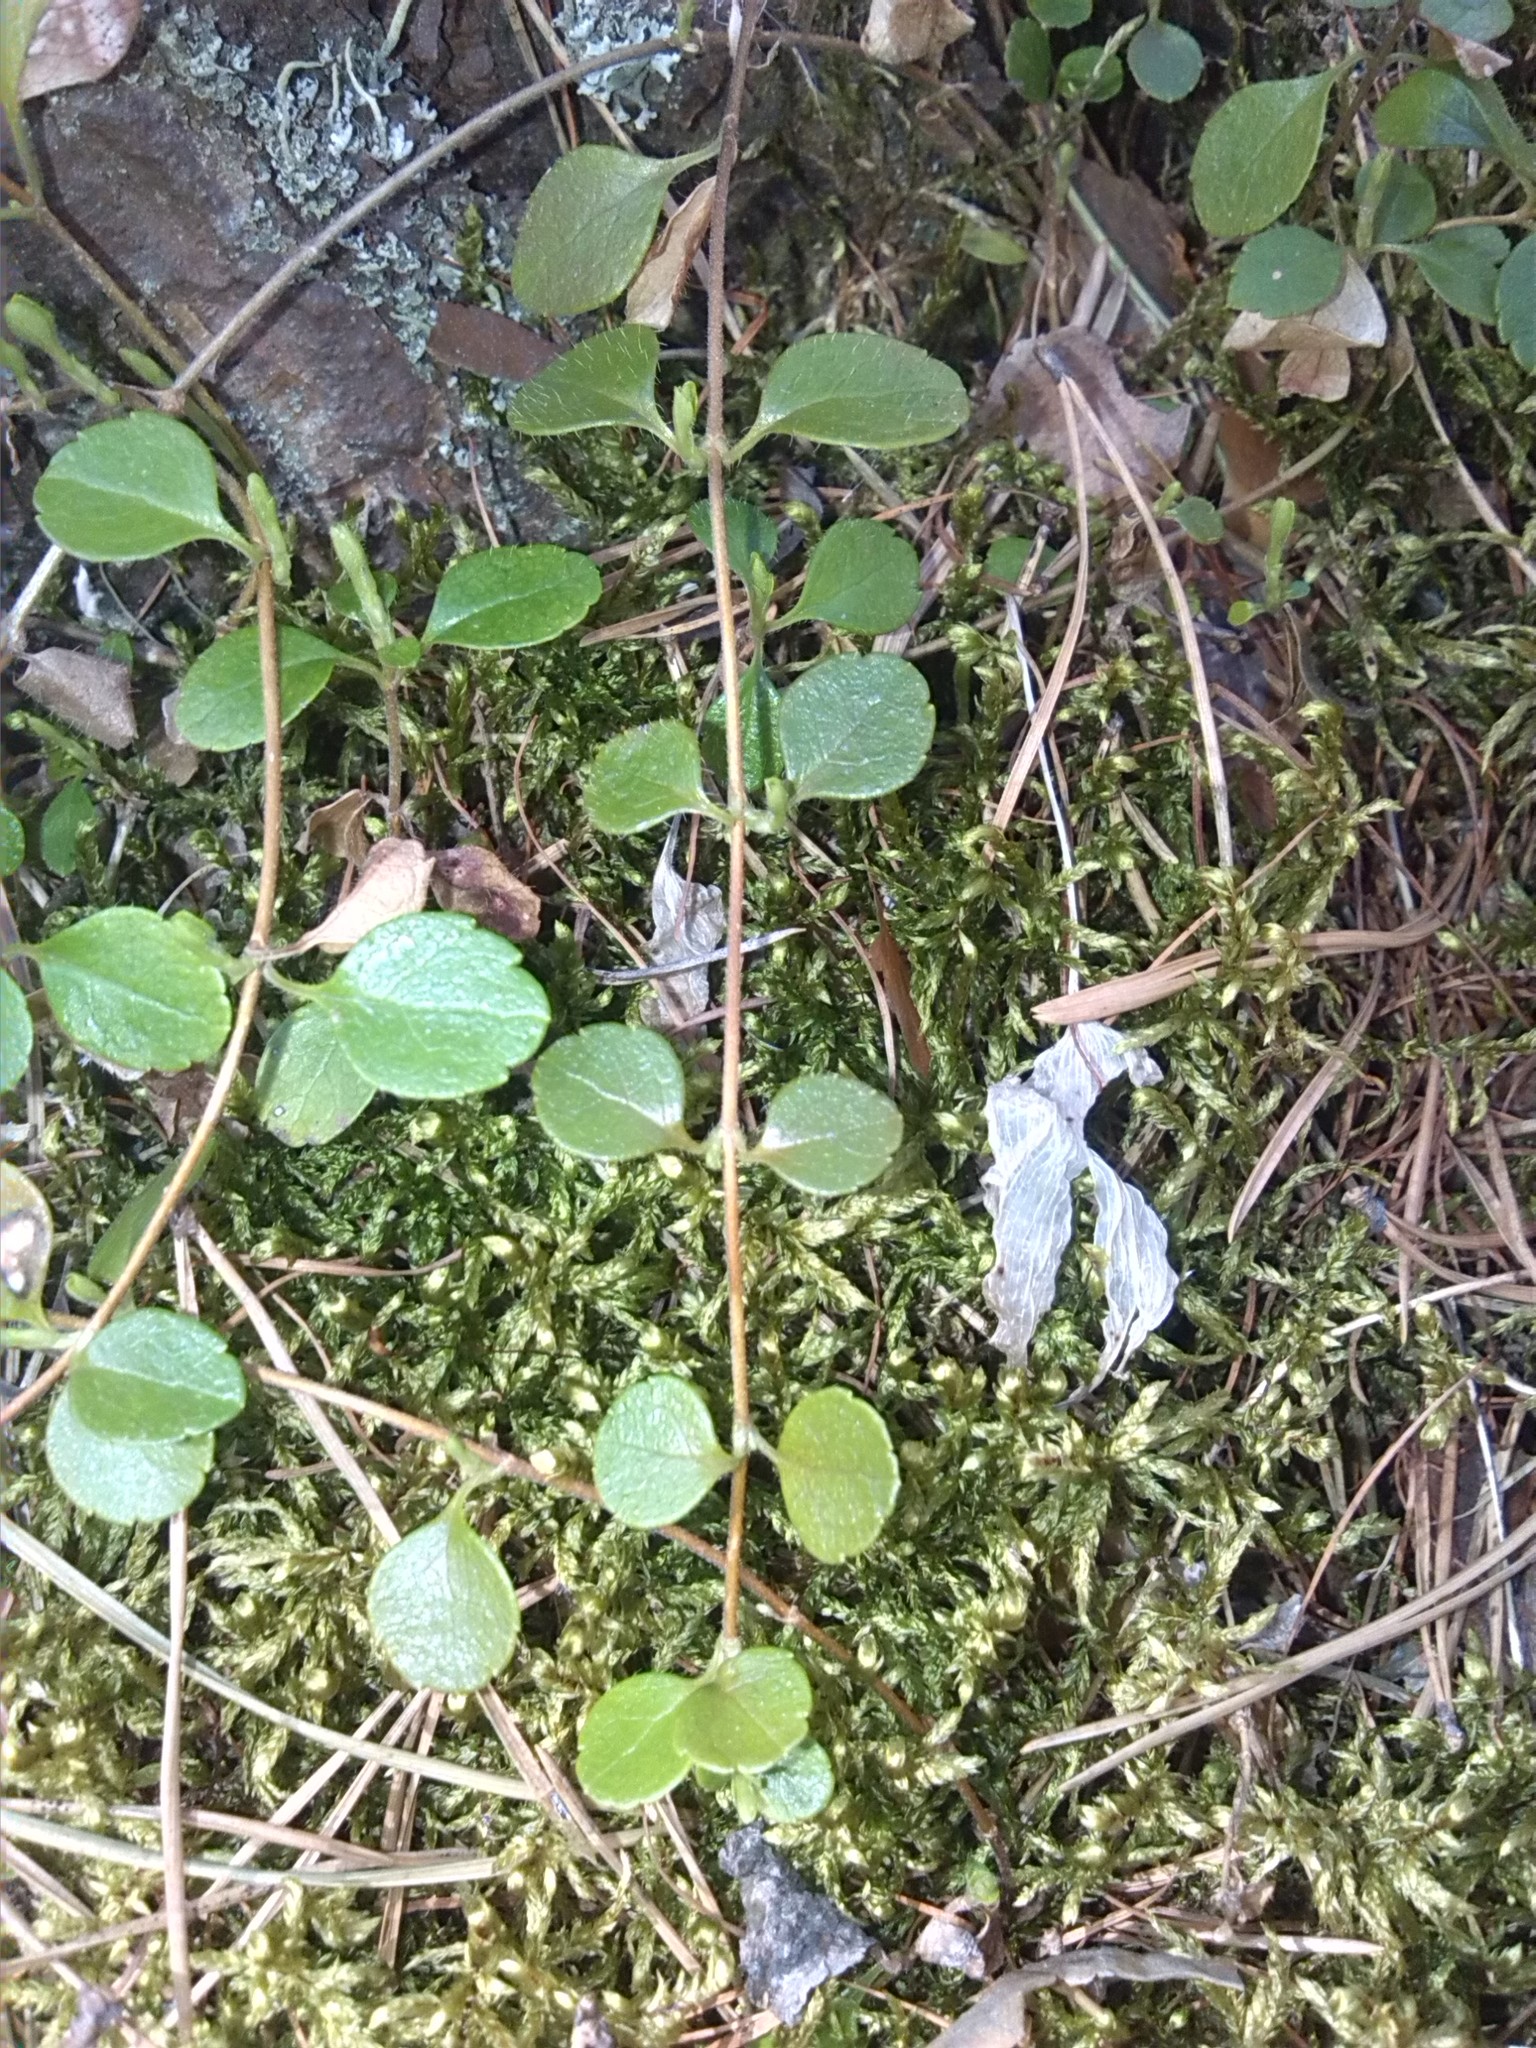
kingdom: Plantae
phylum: Tracheophyta
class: Magnoliopsida
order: Dipsacales
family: Caprifoliaceae
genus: Linnaea
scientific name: Linnaea borealis
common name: Twinflower
